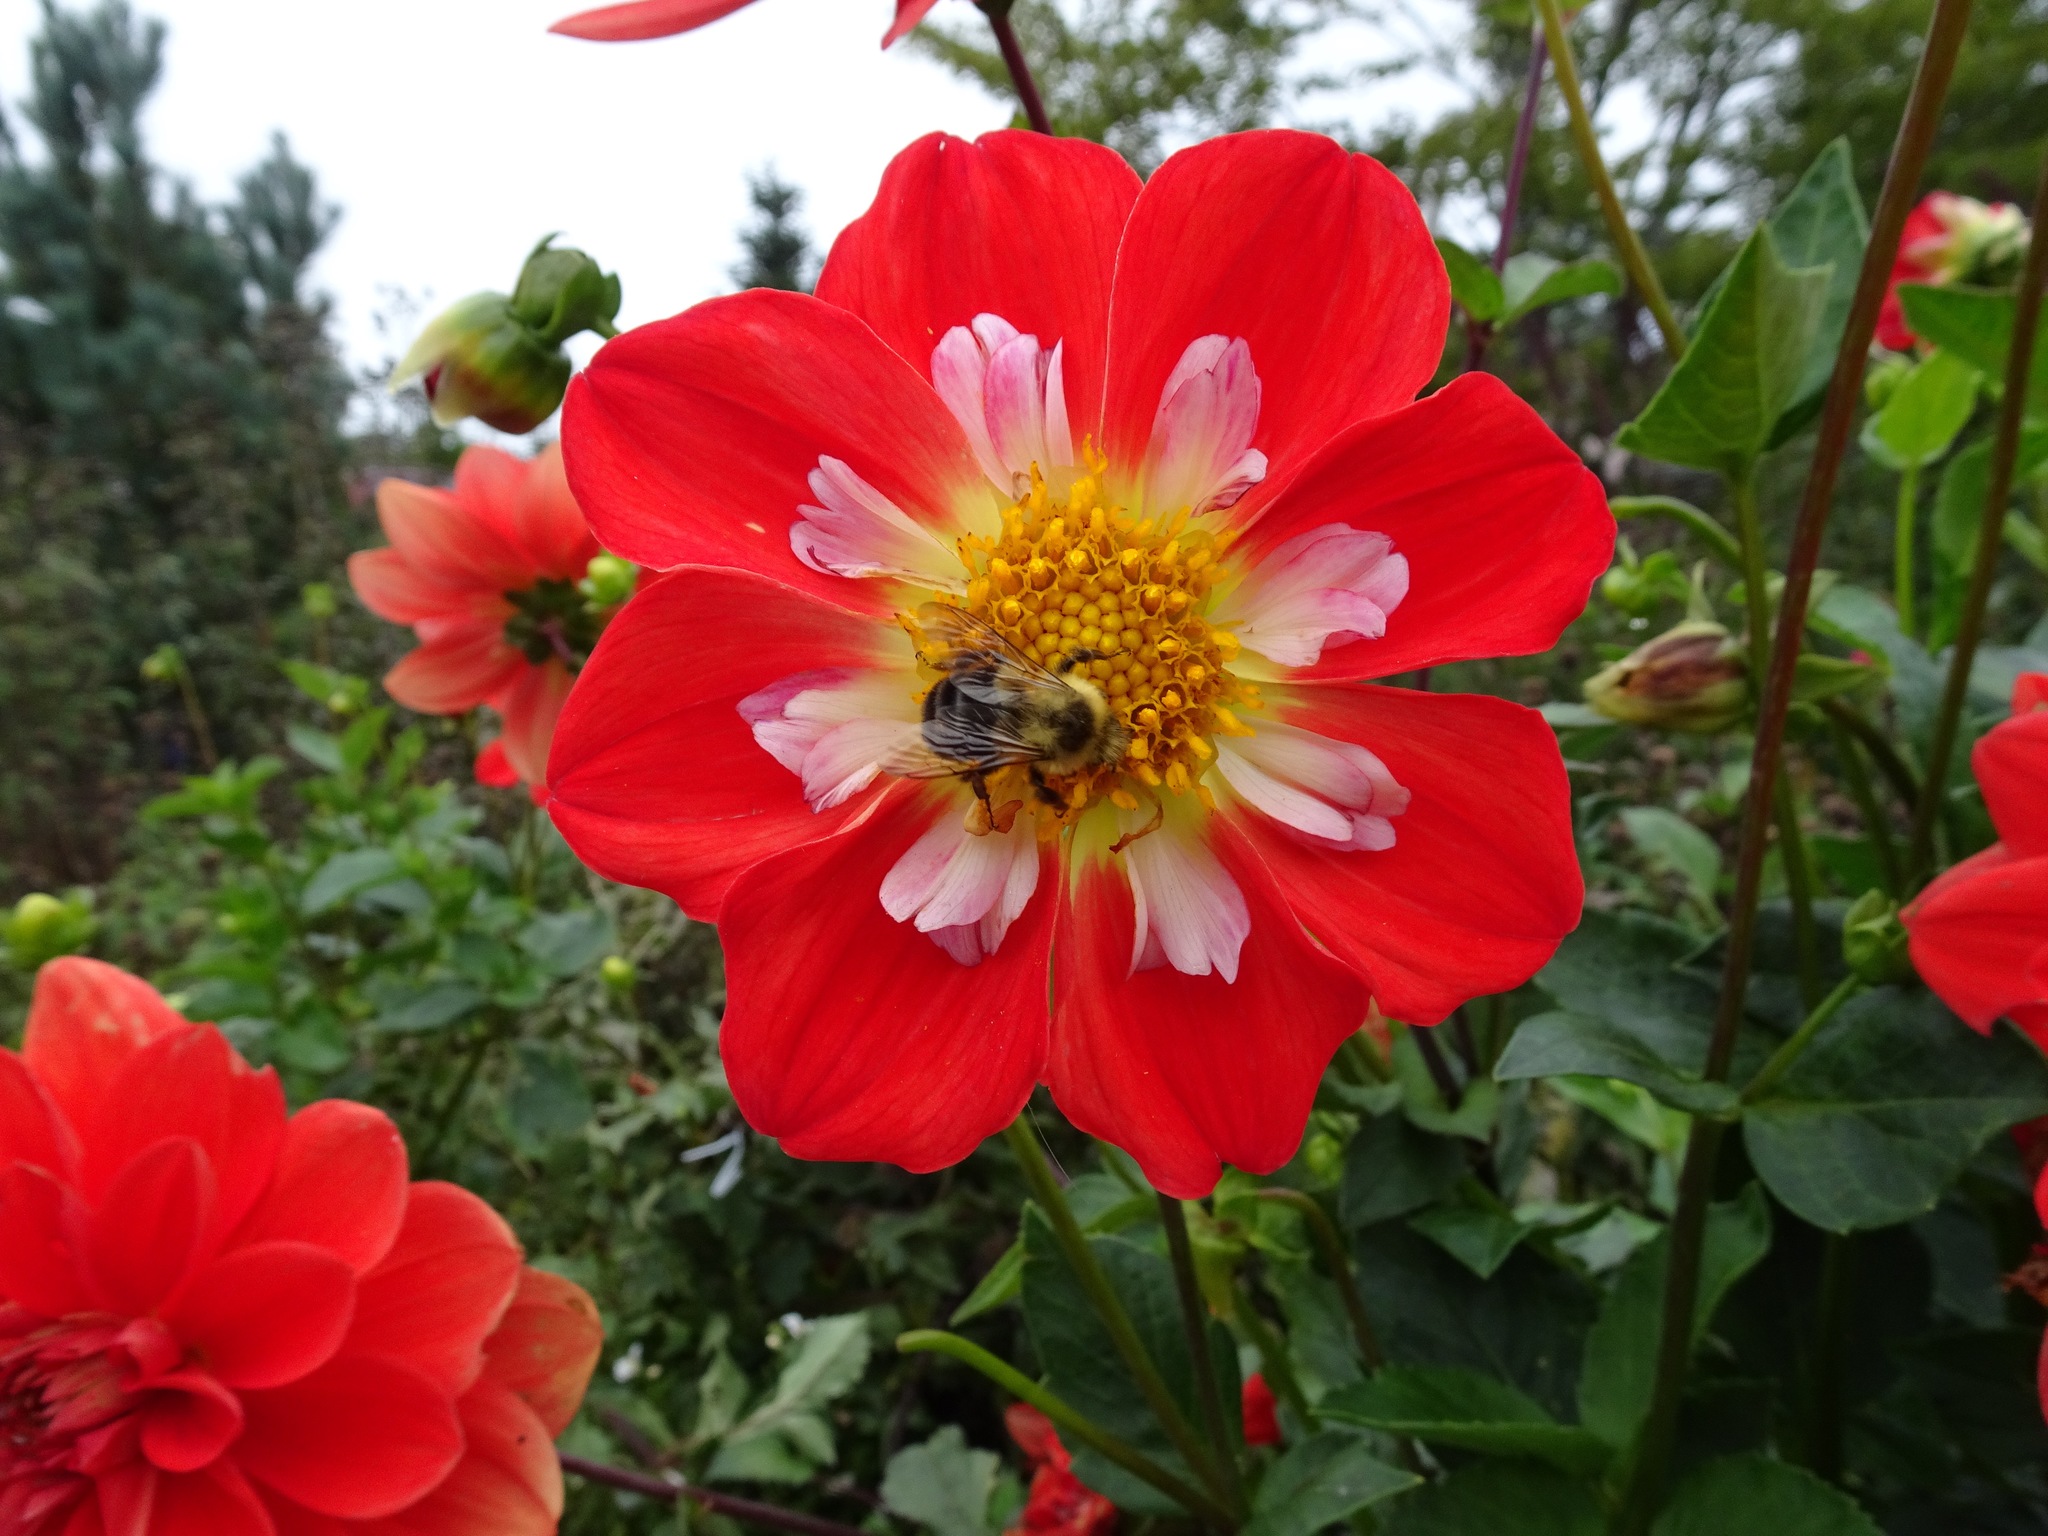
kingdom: Animalia
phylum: Arthropoda
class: Insecta
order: Hymenoptera
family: Apidae
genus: Bombus
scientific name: Bombus impatiens
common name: Common eastern bumble bee
